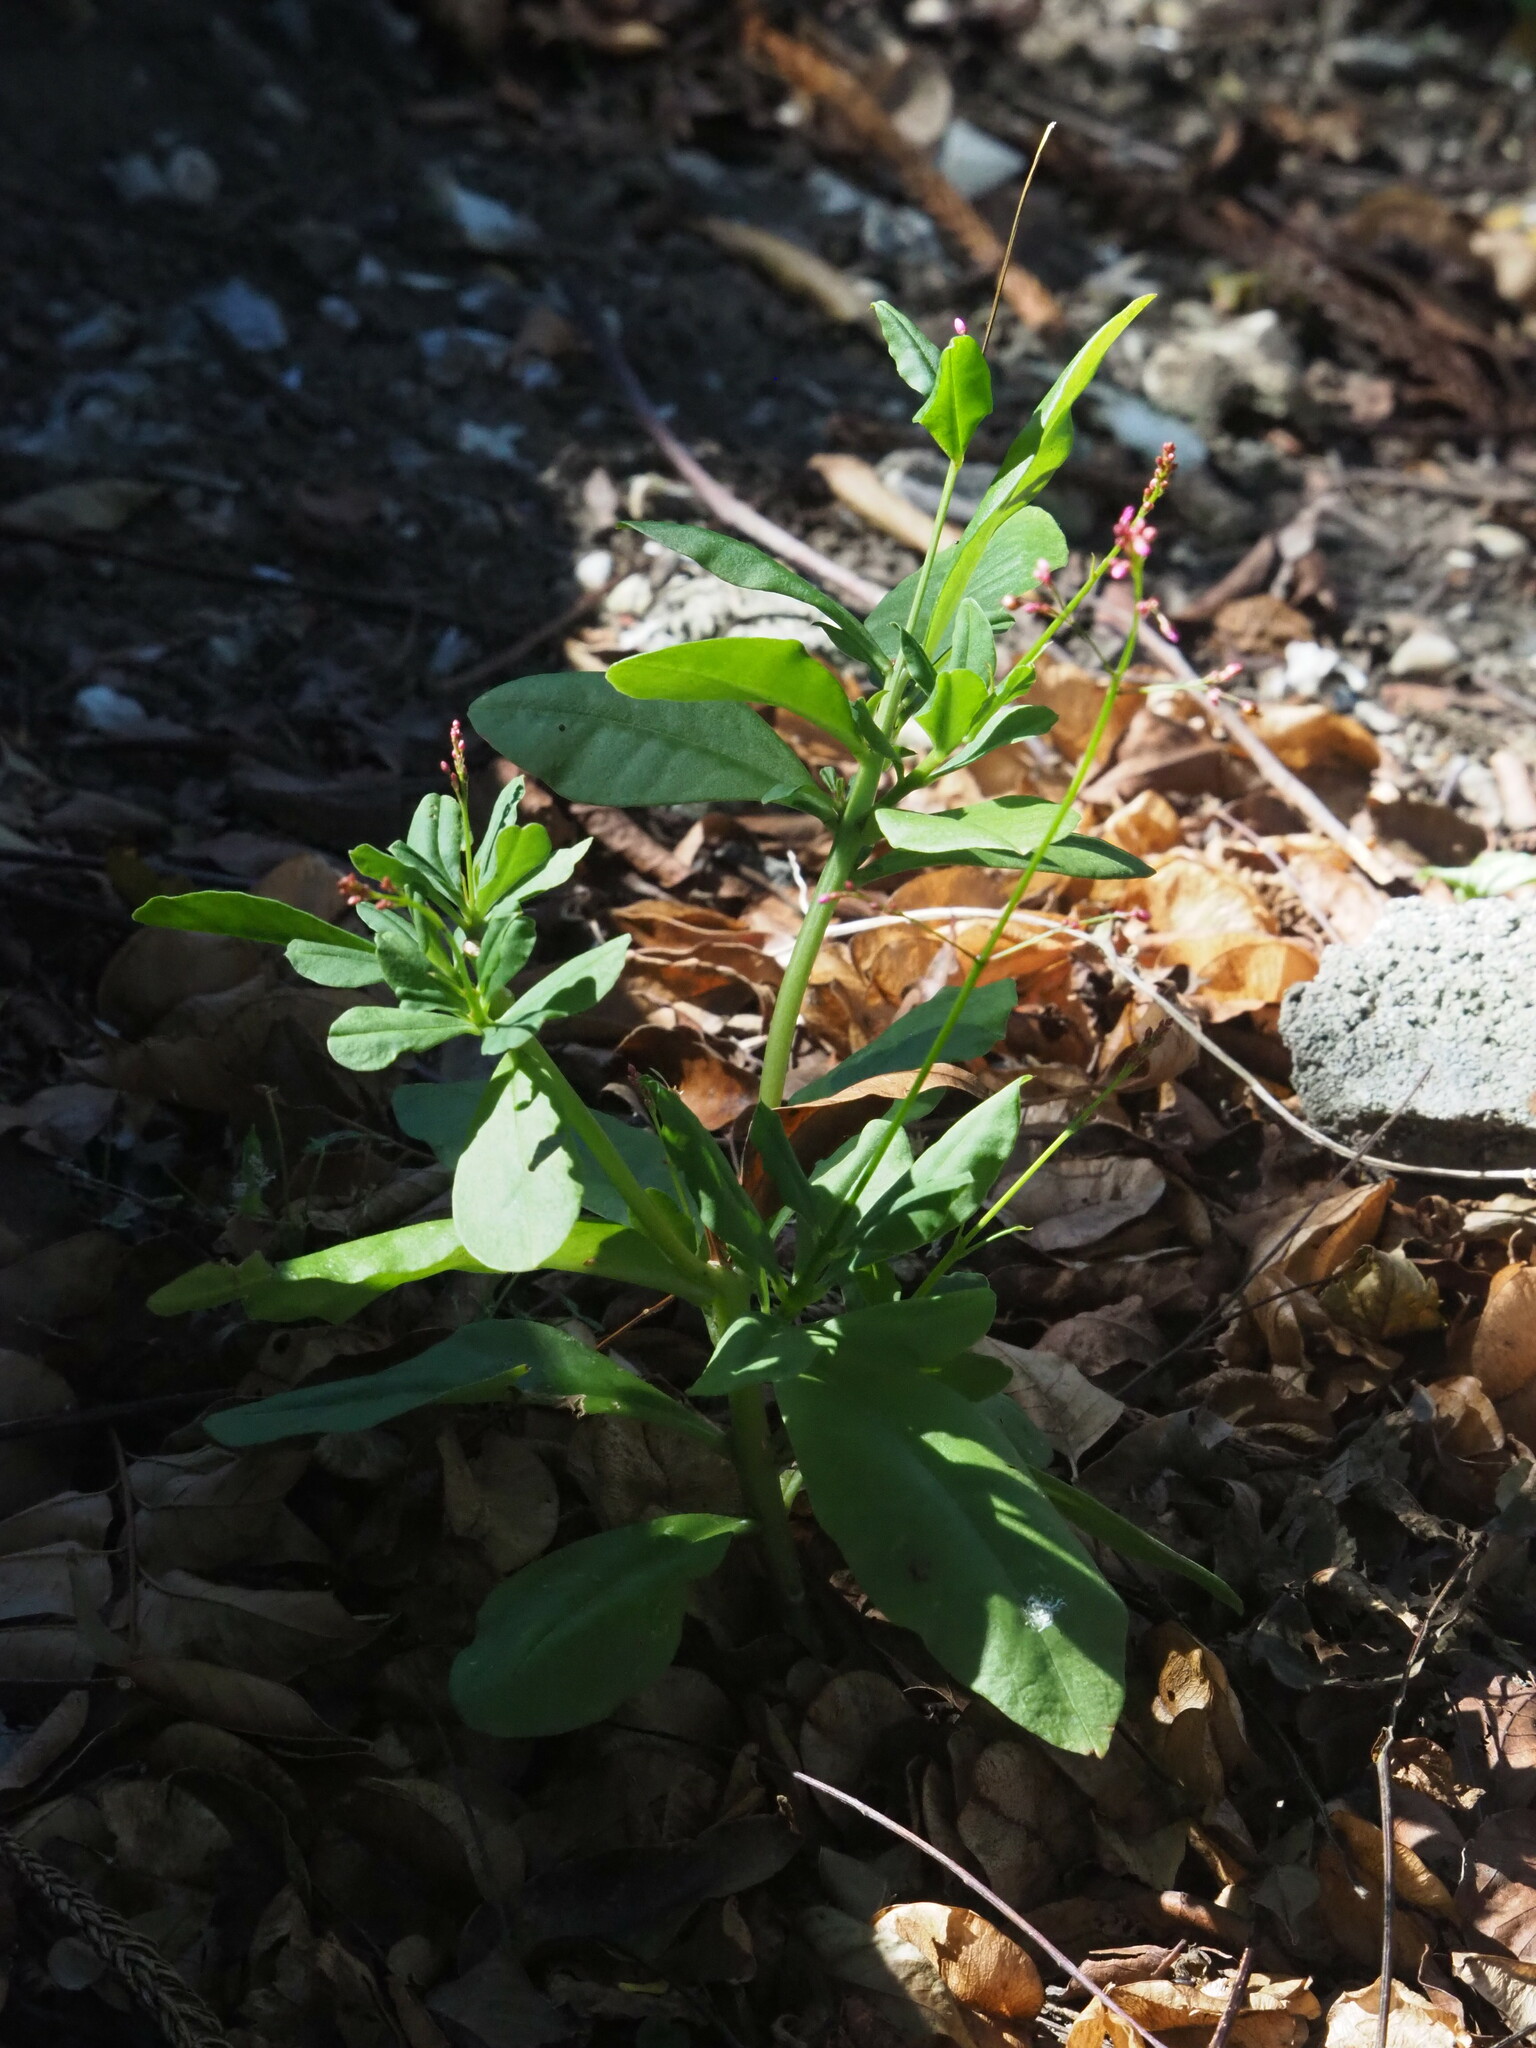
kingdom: Plantae
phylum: Tracheophyta
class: Magnoliopsida
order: Caryophyllales
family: Talinaceae
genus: Talinum
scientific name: Talinum paniculatum
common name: Jewels of opar
